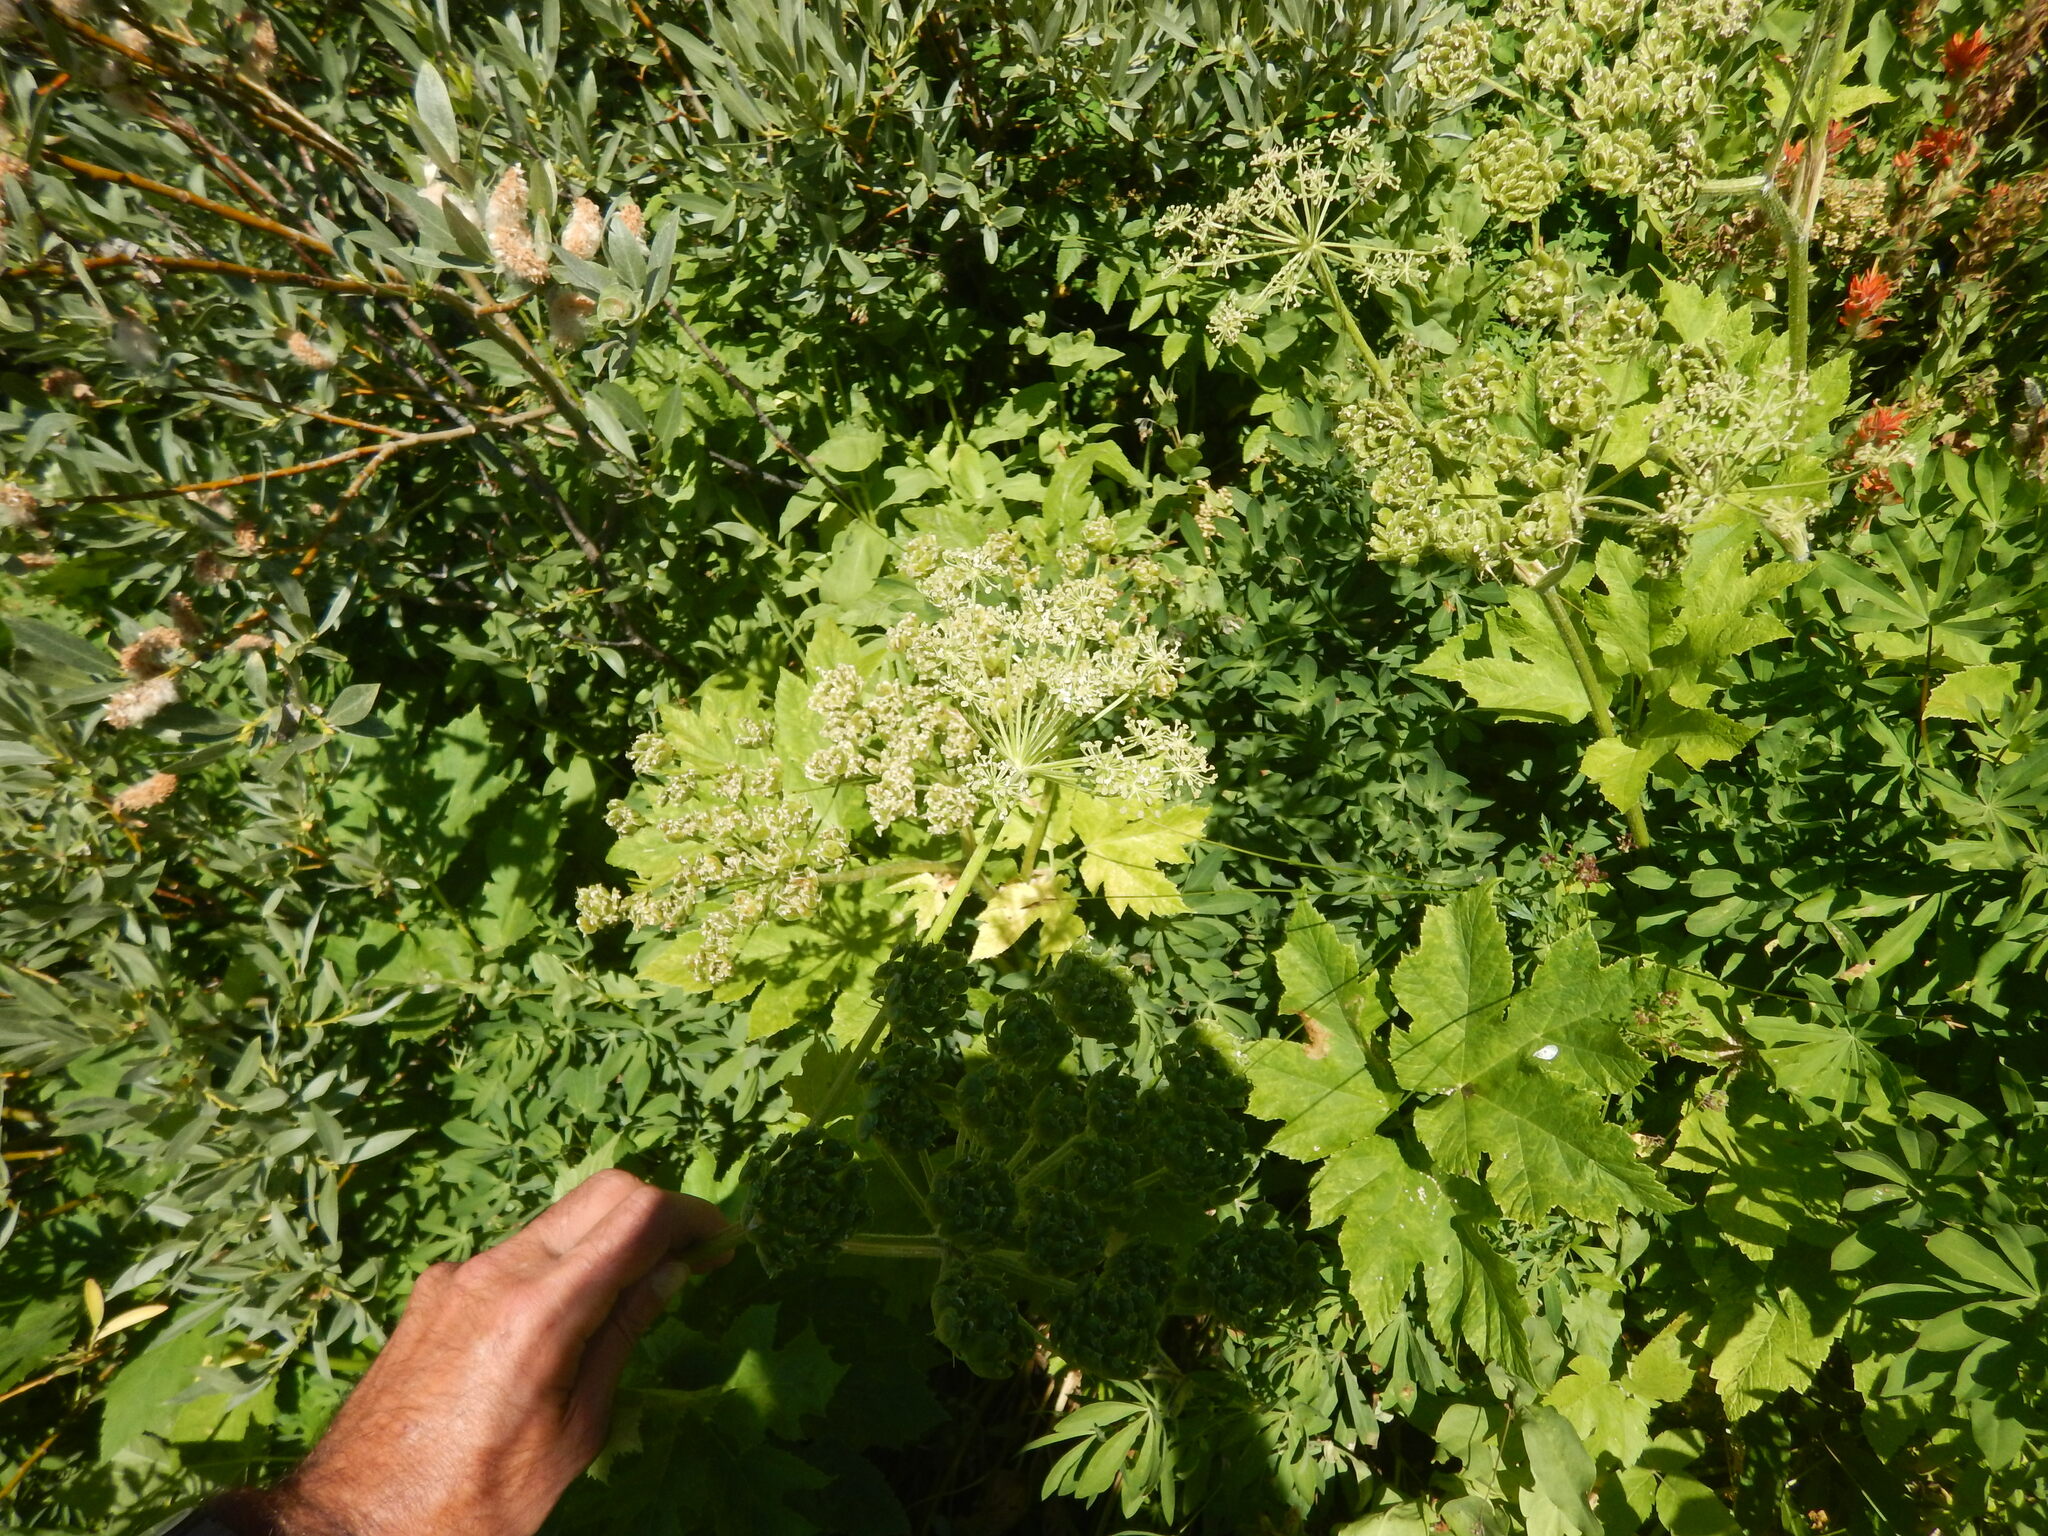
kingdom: Plantae
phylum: Tracheophyta
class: Magnoliopsida
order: Apiales
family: Apiaceae
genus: Heracleum
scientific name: Heracleum maximum
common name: American cow parsnip
